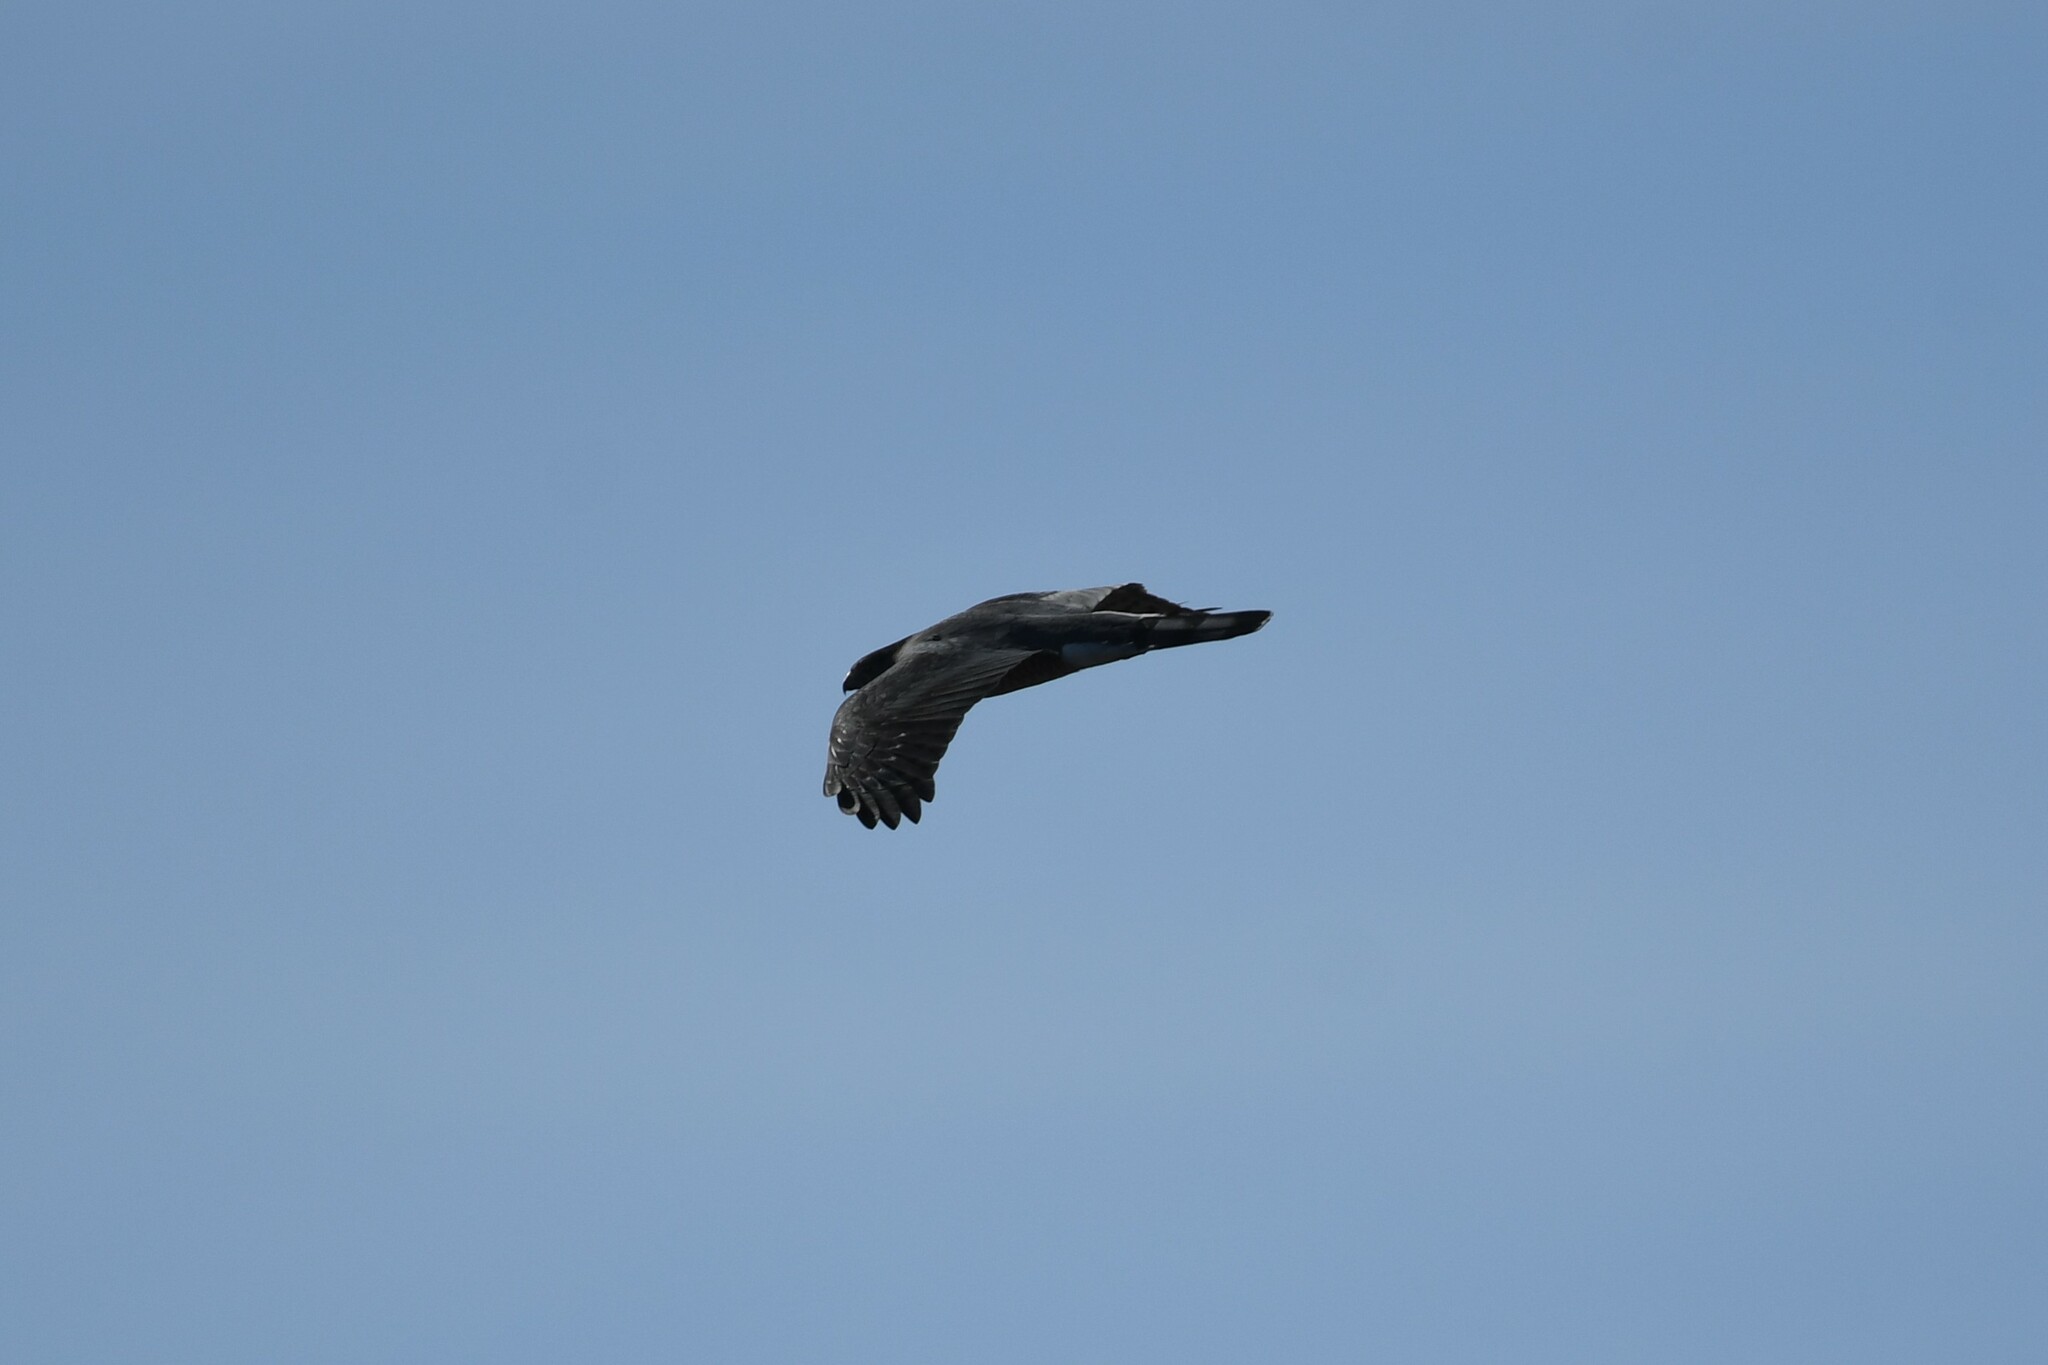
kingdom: Animalia
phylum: Chordata
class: Aves
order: Accipitriformes
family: Accipitridae
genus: Accipiter
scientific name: Accipiter cooperii
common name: Cooper's hawk
